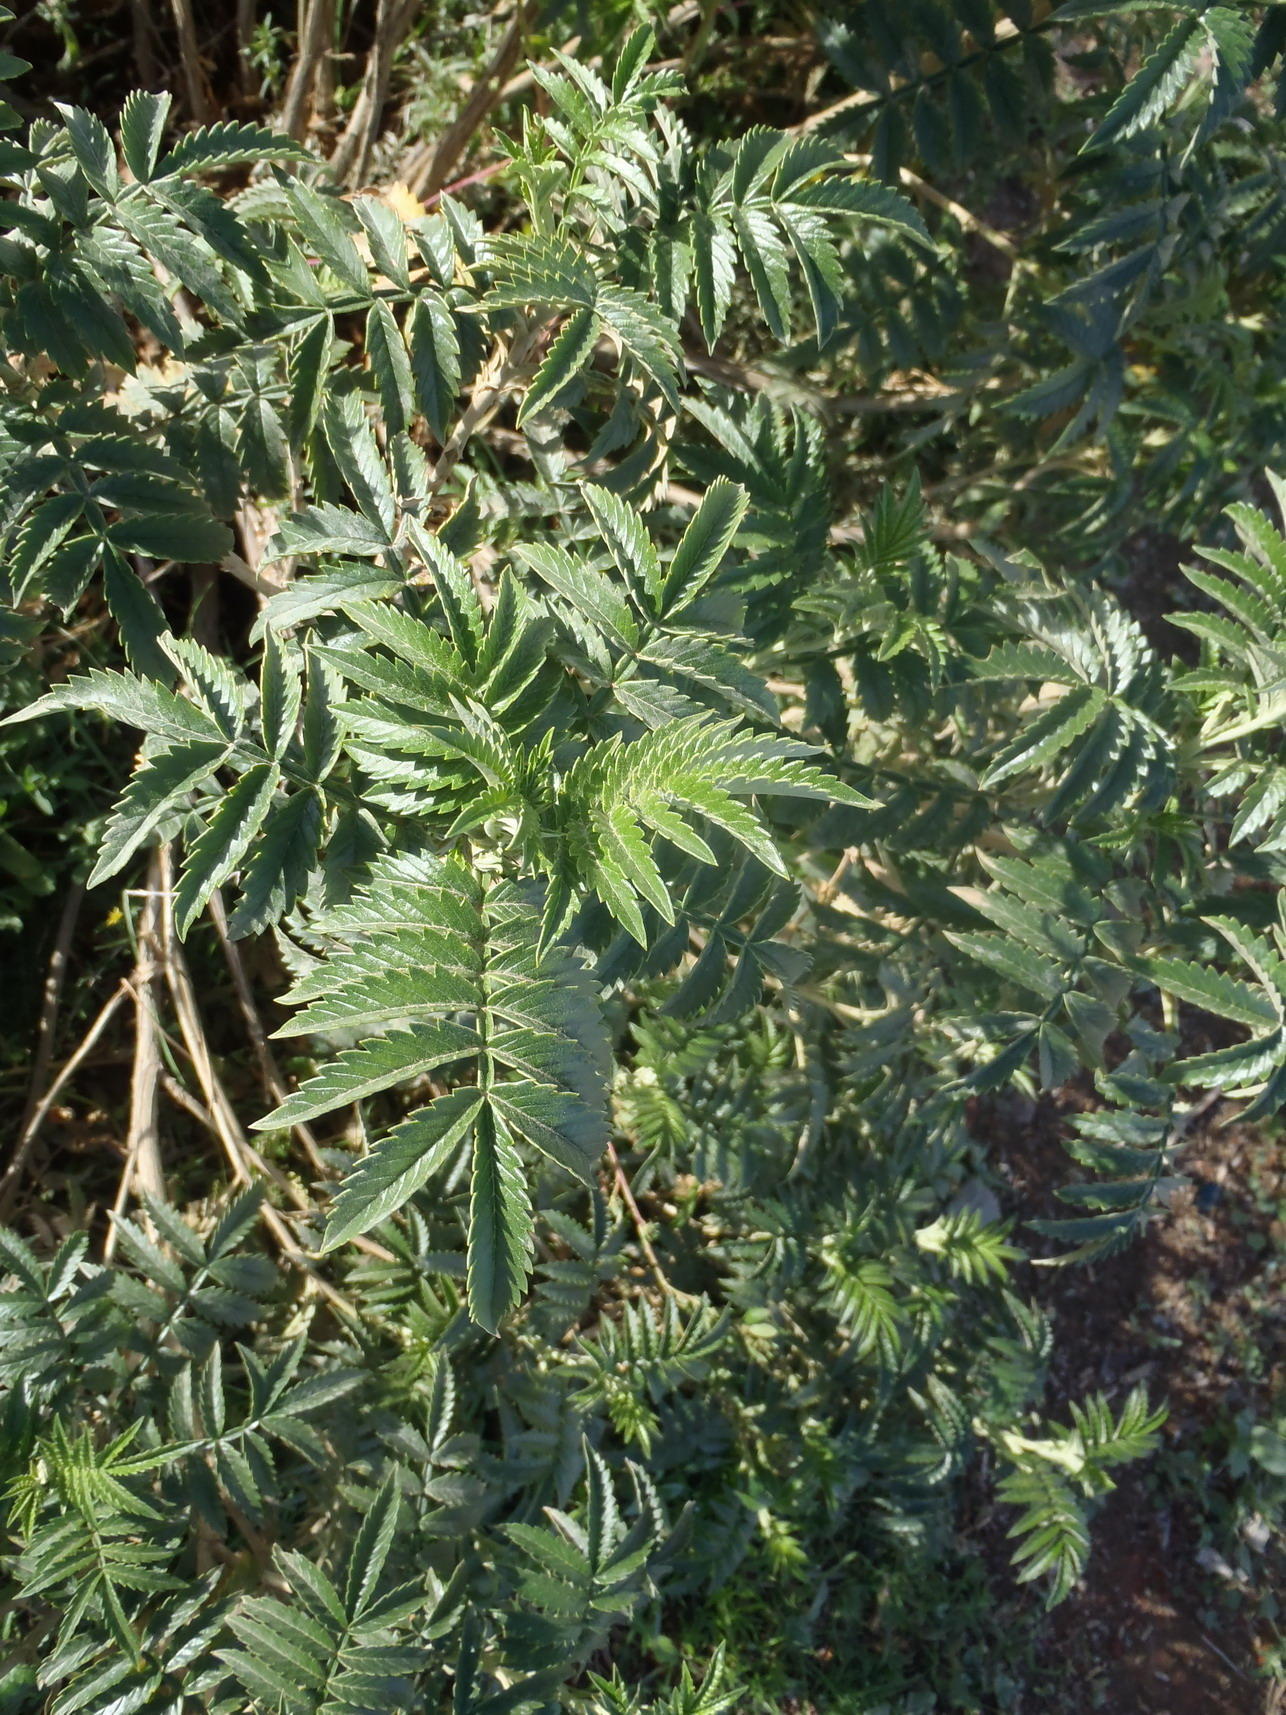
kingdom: Plantae
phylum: Tracheophyta
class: Magnoliopsida
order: Geraniales
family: Melianthaceae
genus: Melianthus
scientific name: Melianthus comosus
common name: Touch-me-not
